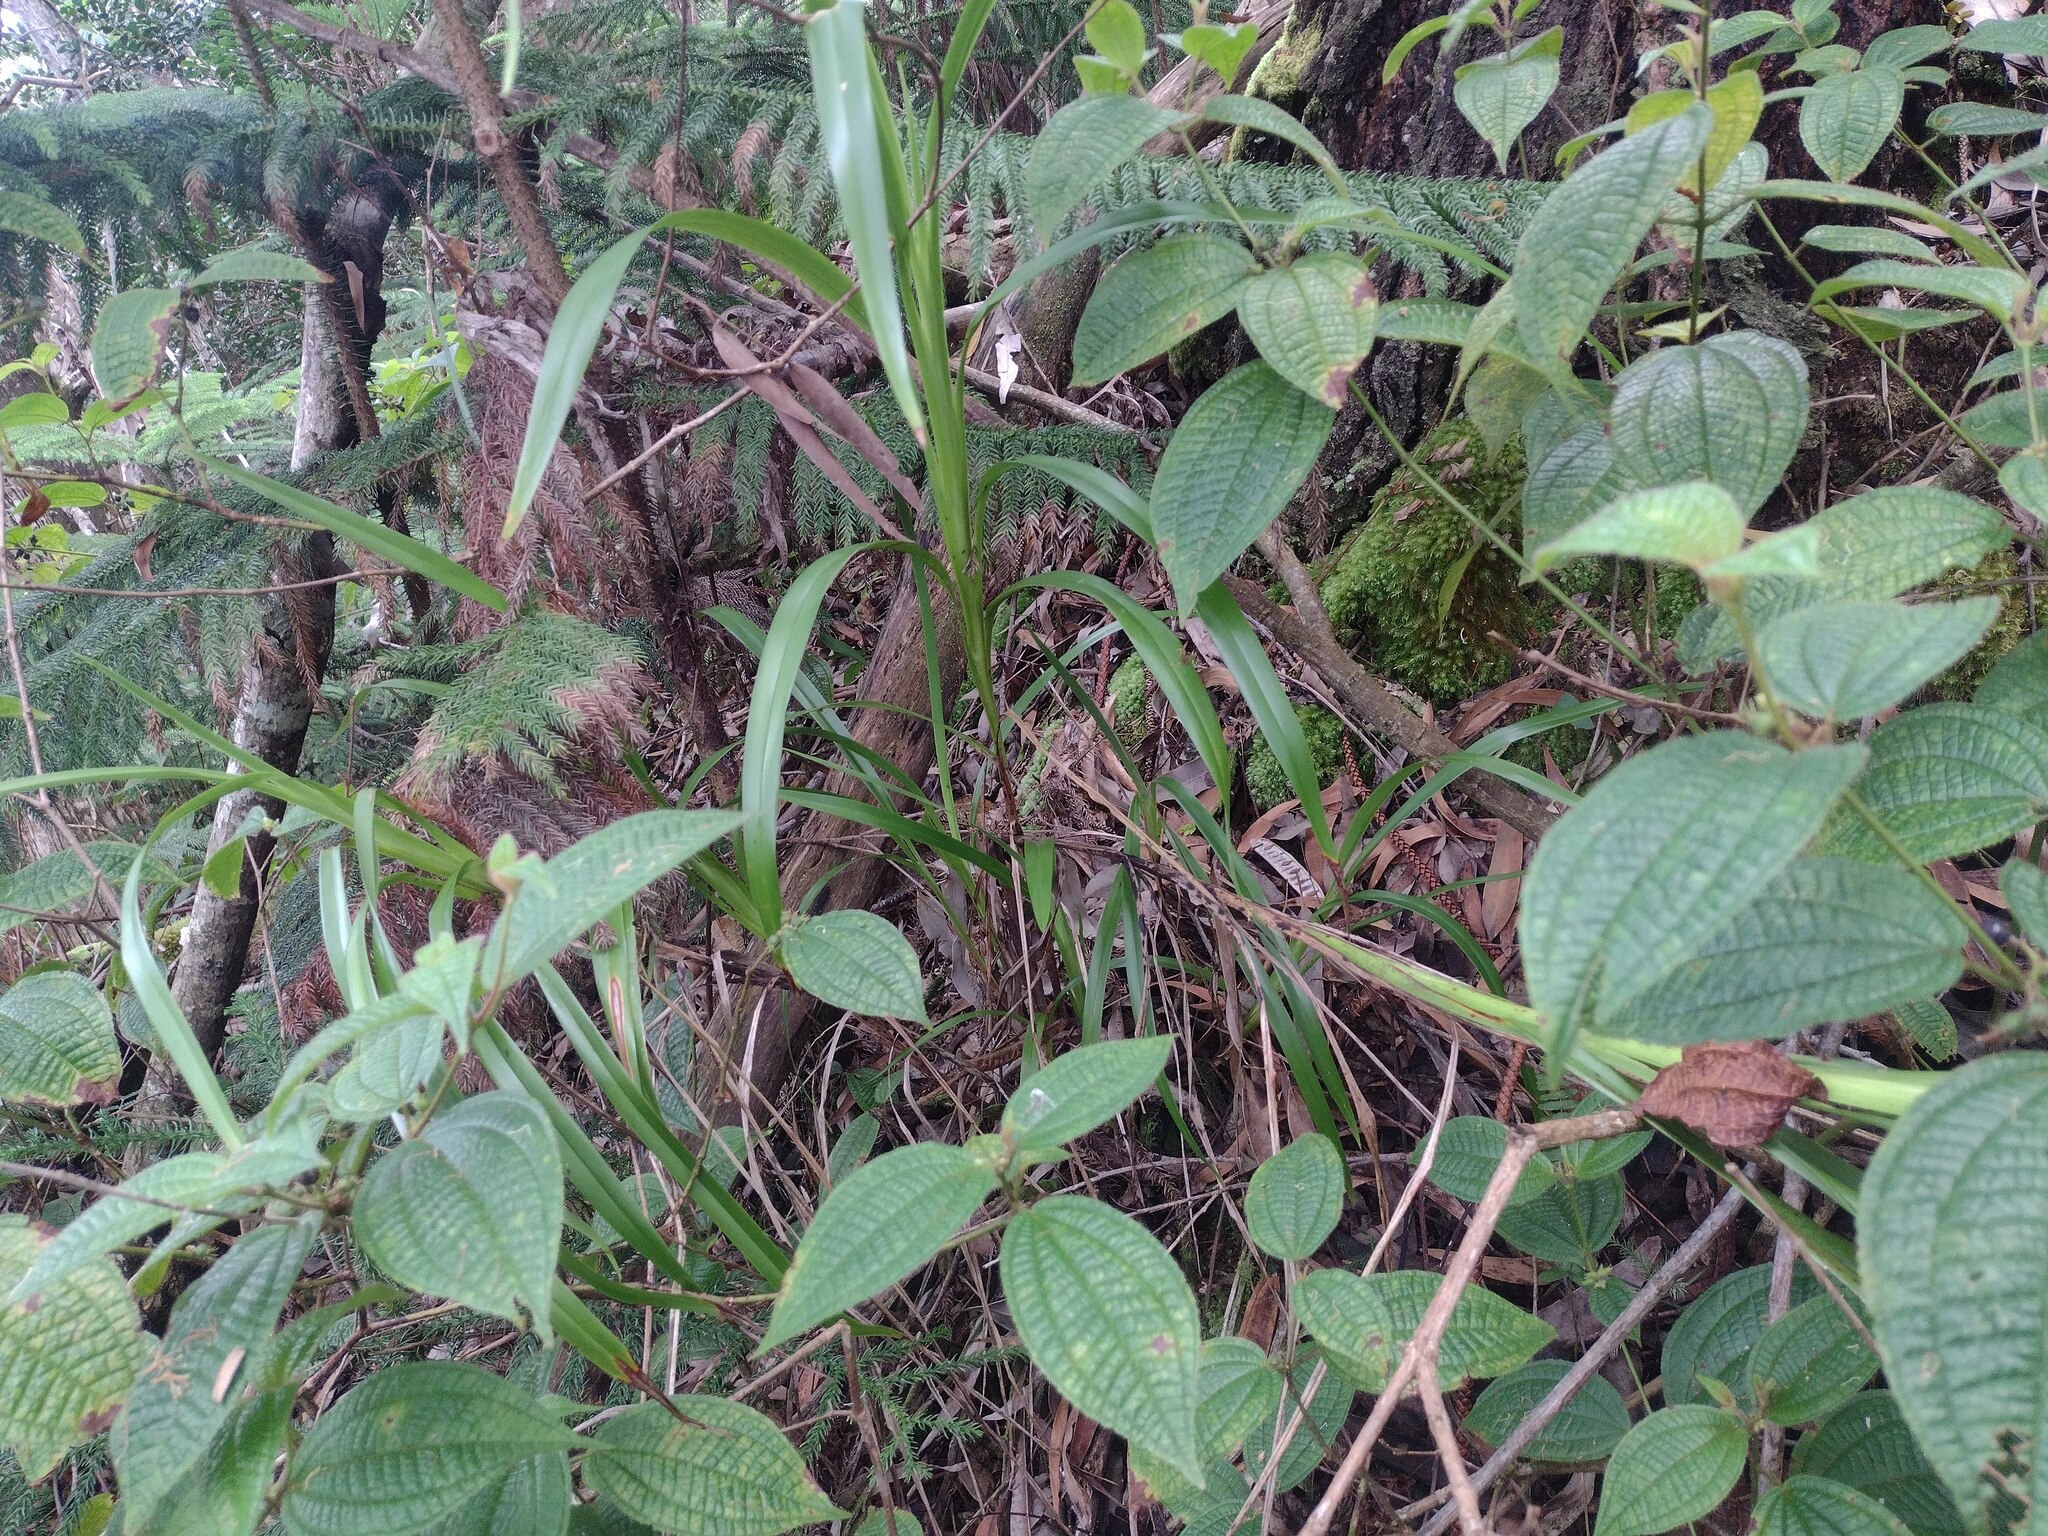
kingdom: Plantae
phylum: Tracheophyta
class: Liliopsida
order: Asparagales
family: Asphodelaceae
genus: Dianella
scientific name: Dianella sandwicensis
